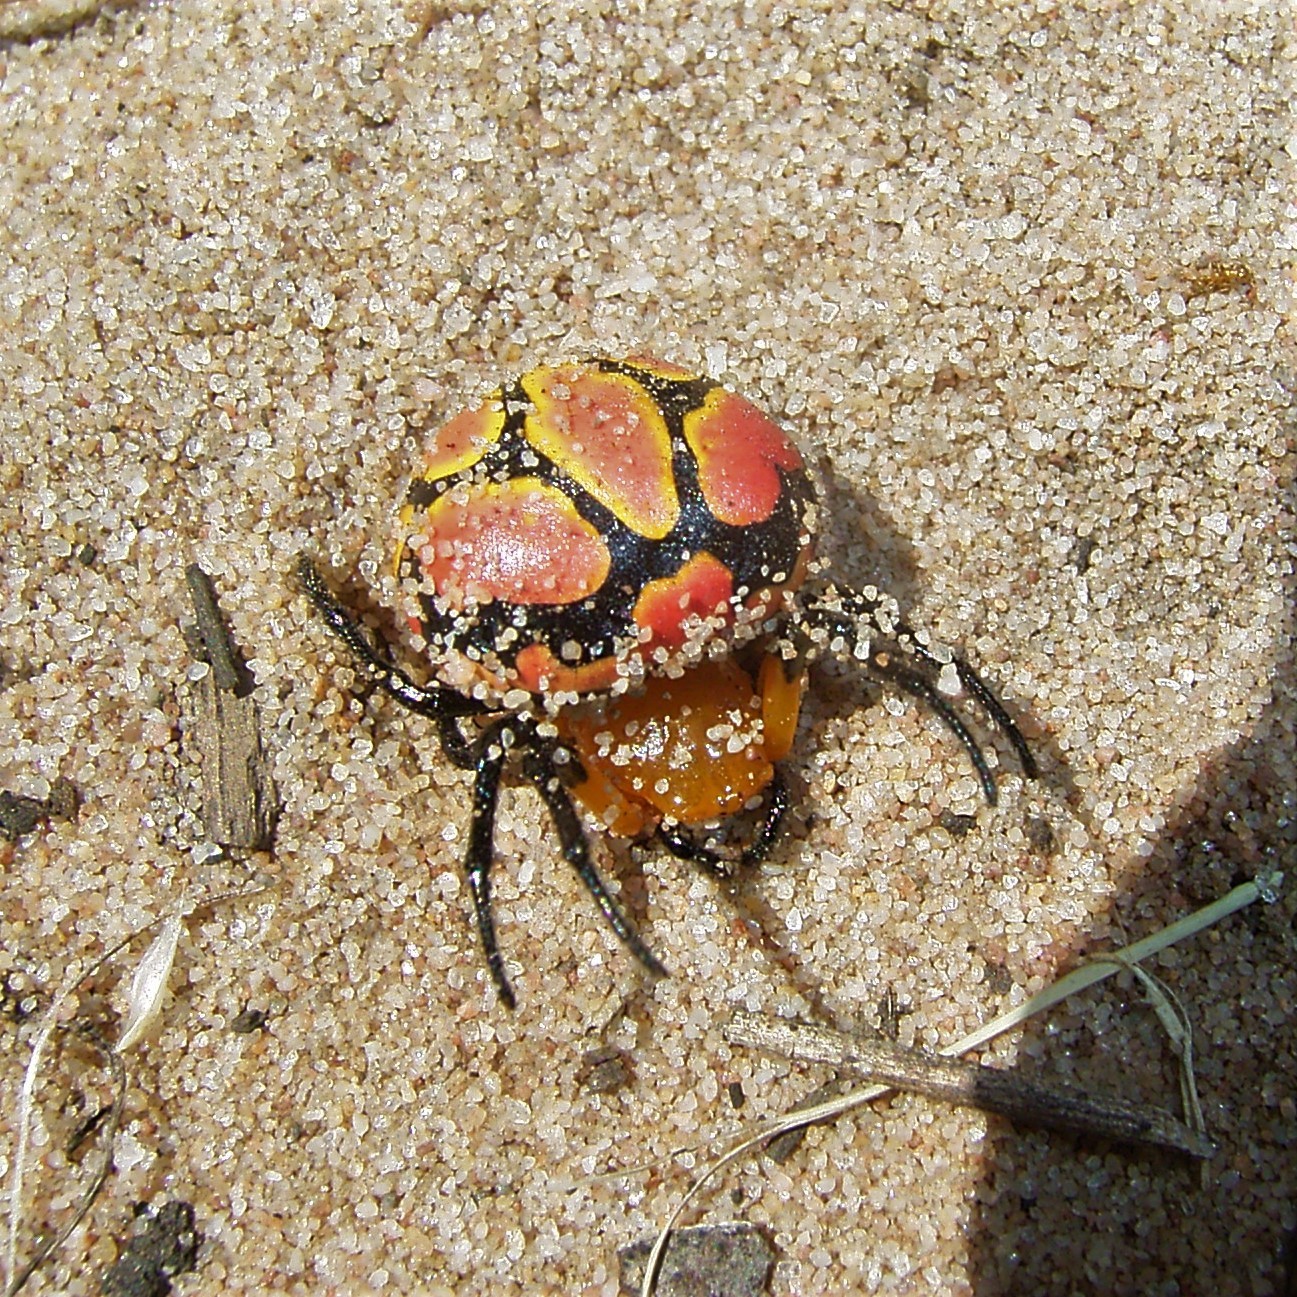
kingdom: Animalia
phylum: Arthropoda
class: Arachnida
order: Araneae
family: Araneidae
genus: Paraplectana
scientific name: Paraplectana thorntoni
